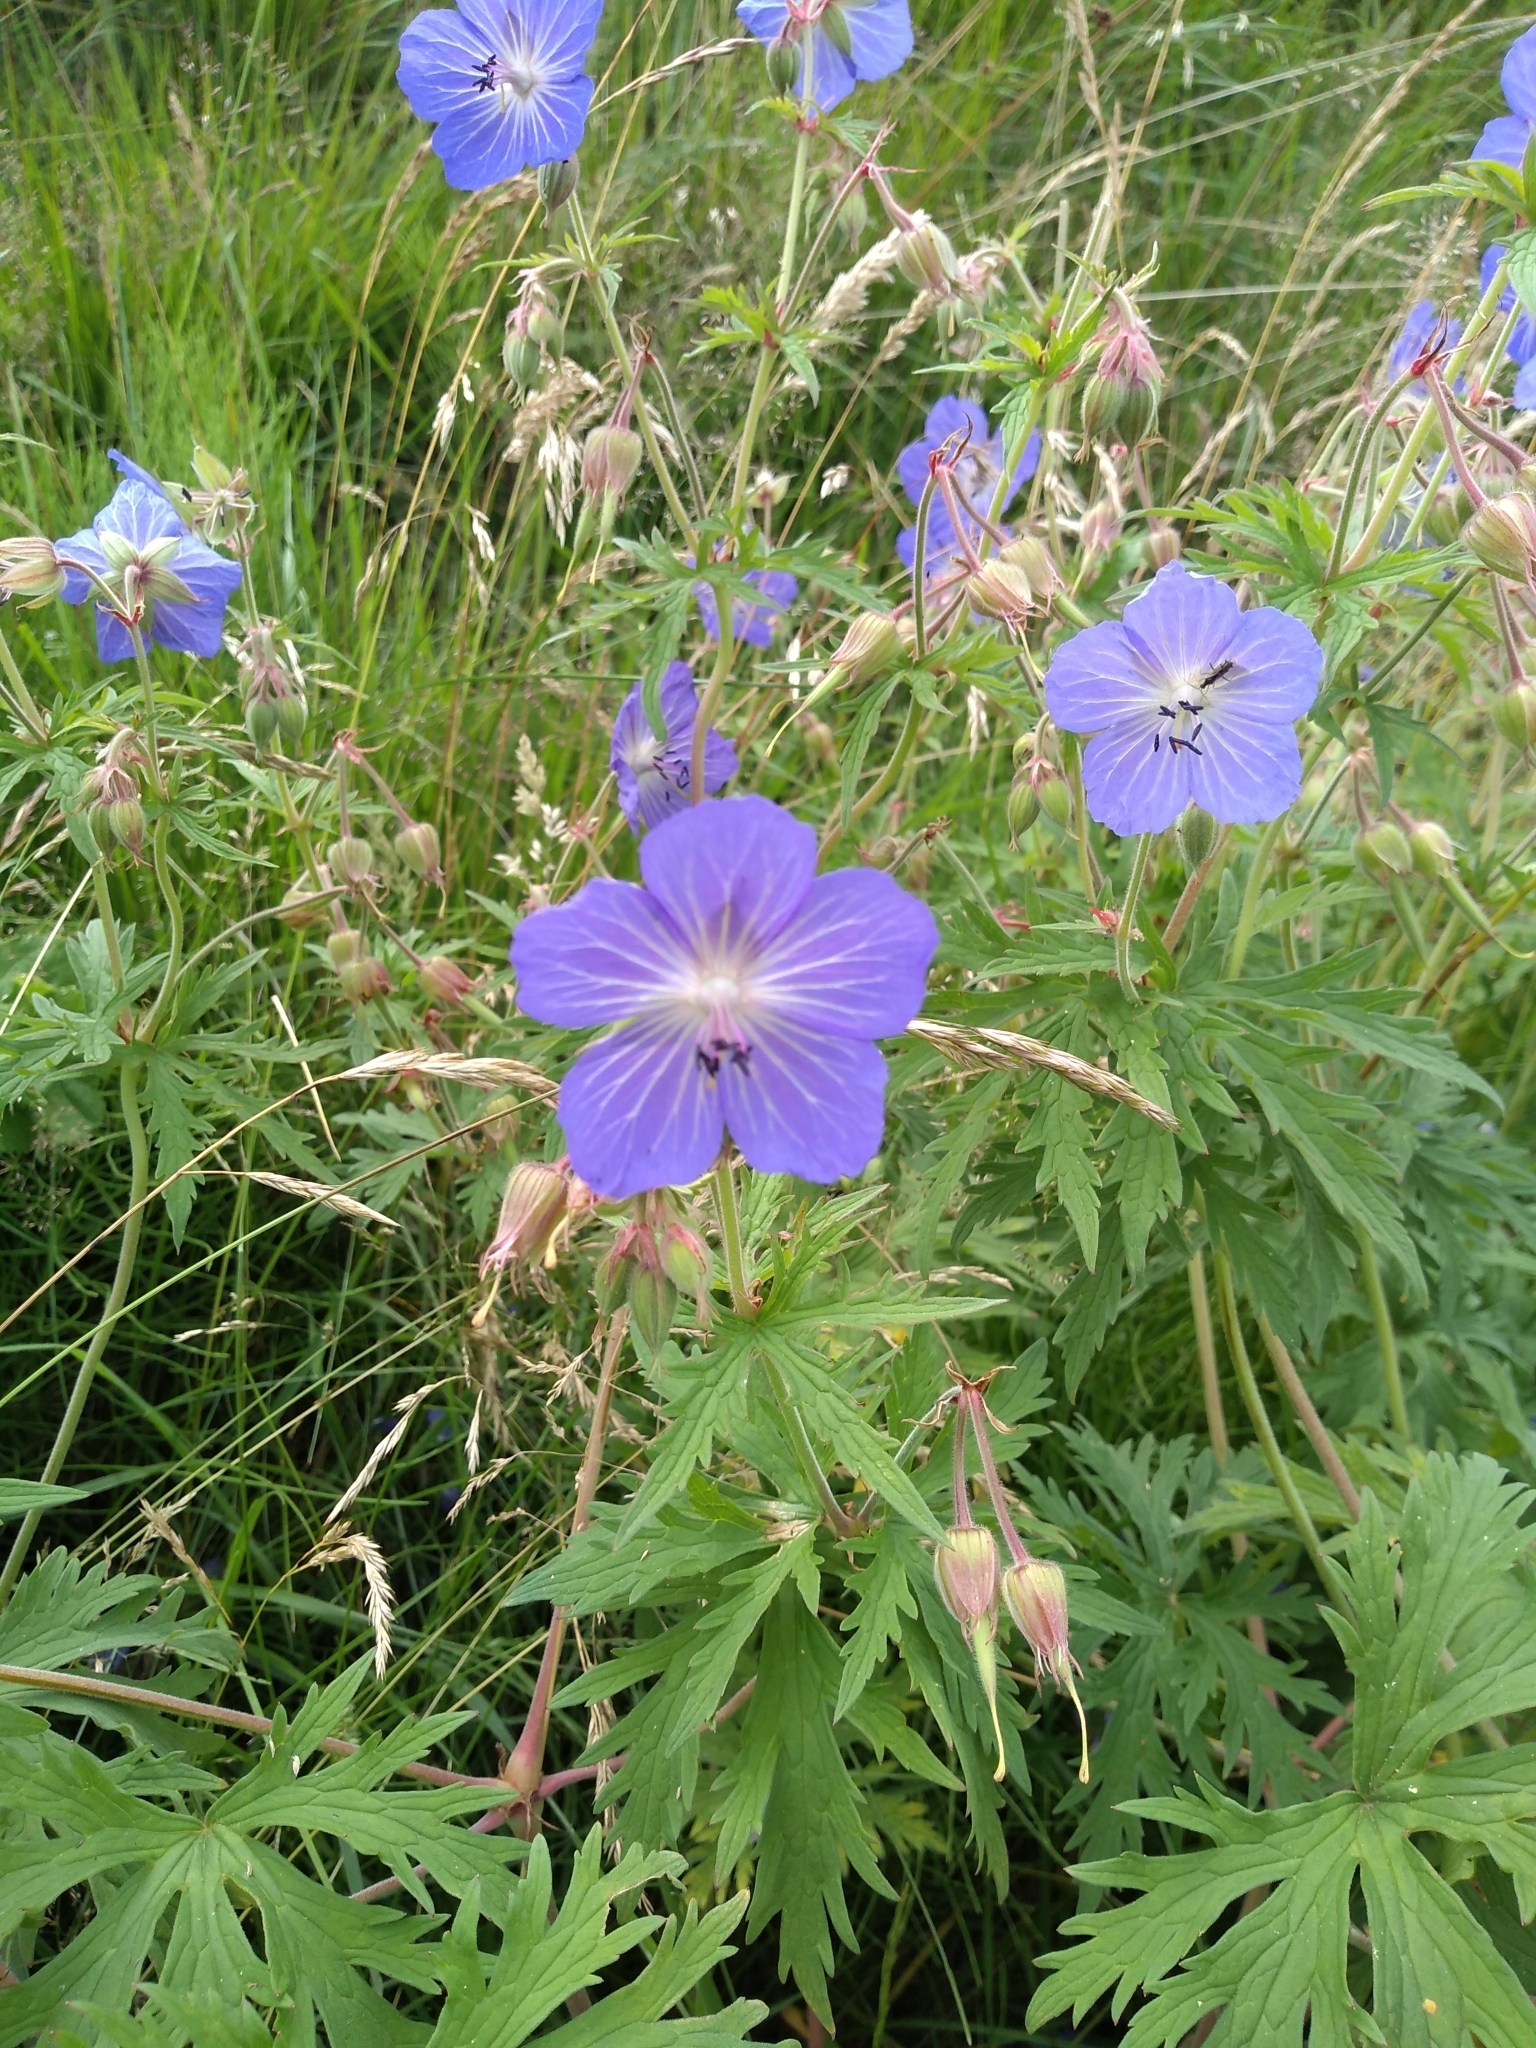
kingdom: Plantae
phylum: Tracheophyta
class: Magnoliopsida
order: Geraniales
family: Geraniaceae
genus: Geranium
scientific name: Geranium pratense
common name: Meadow crane's-bill
